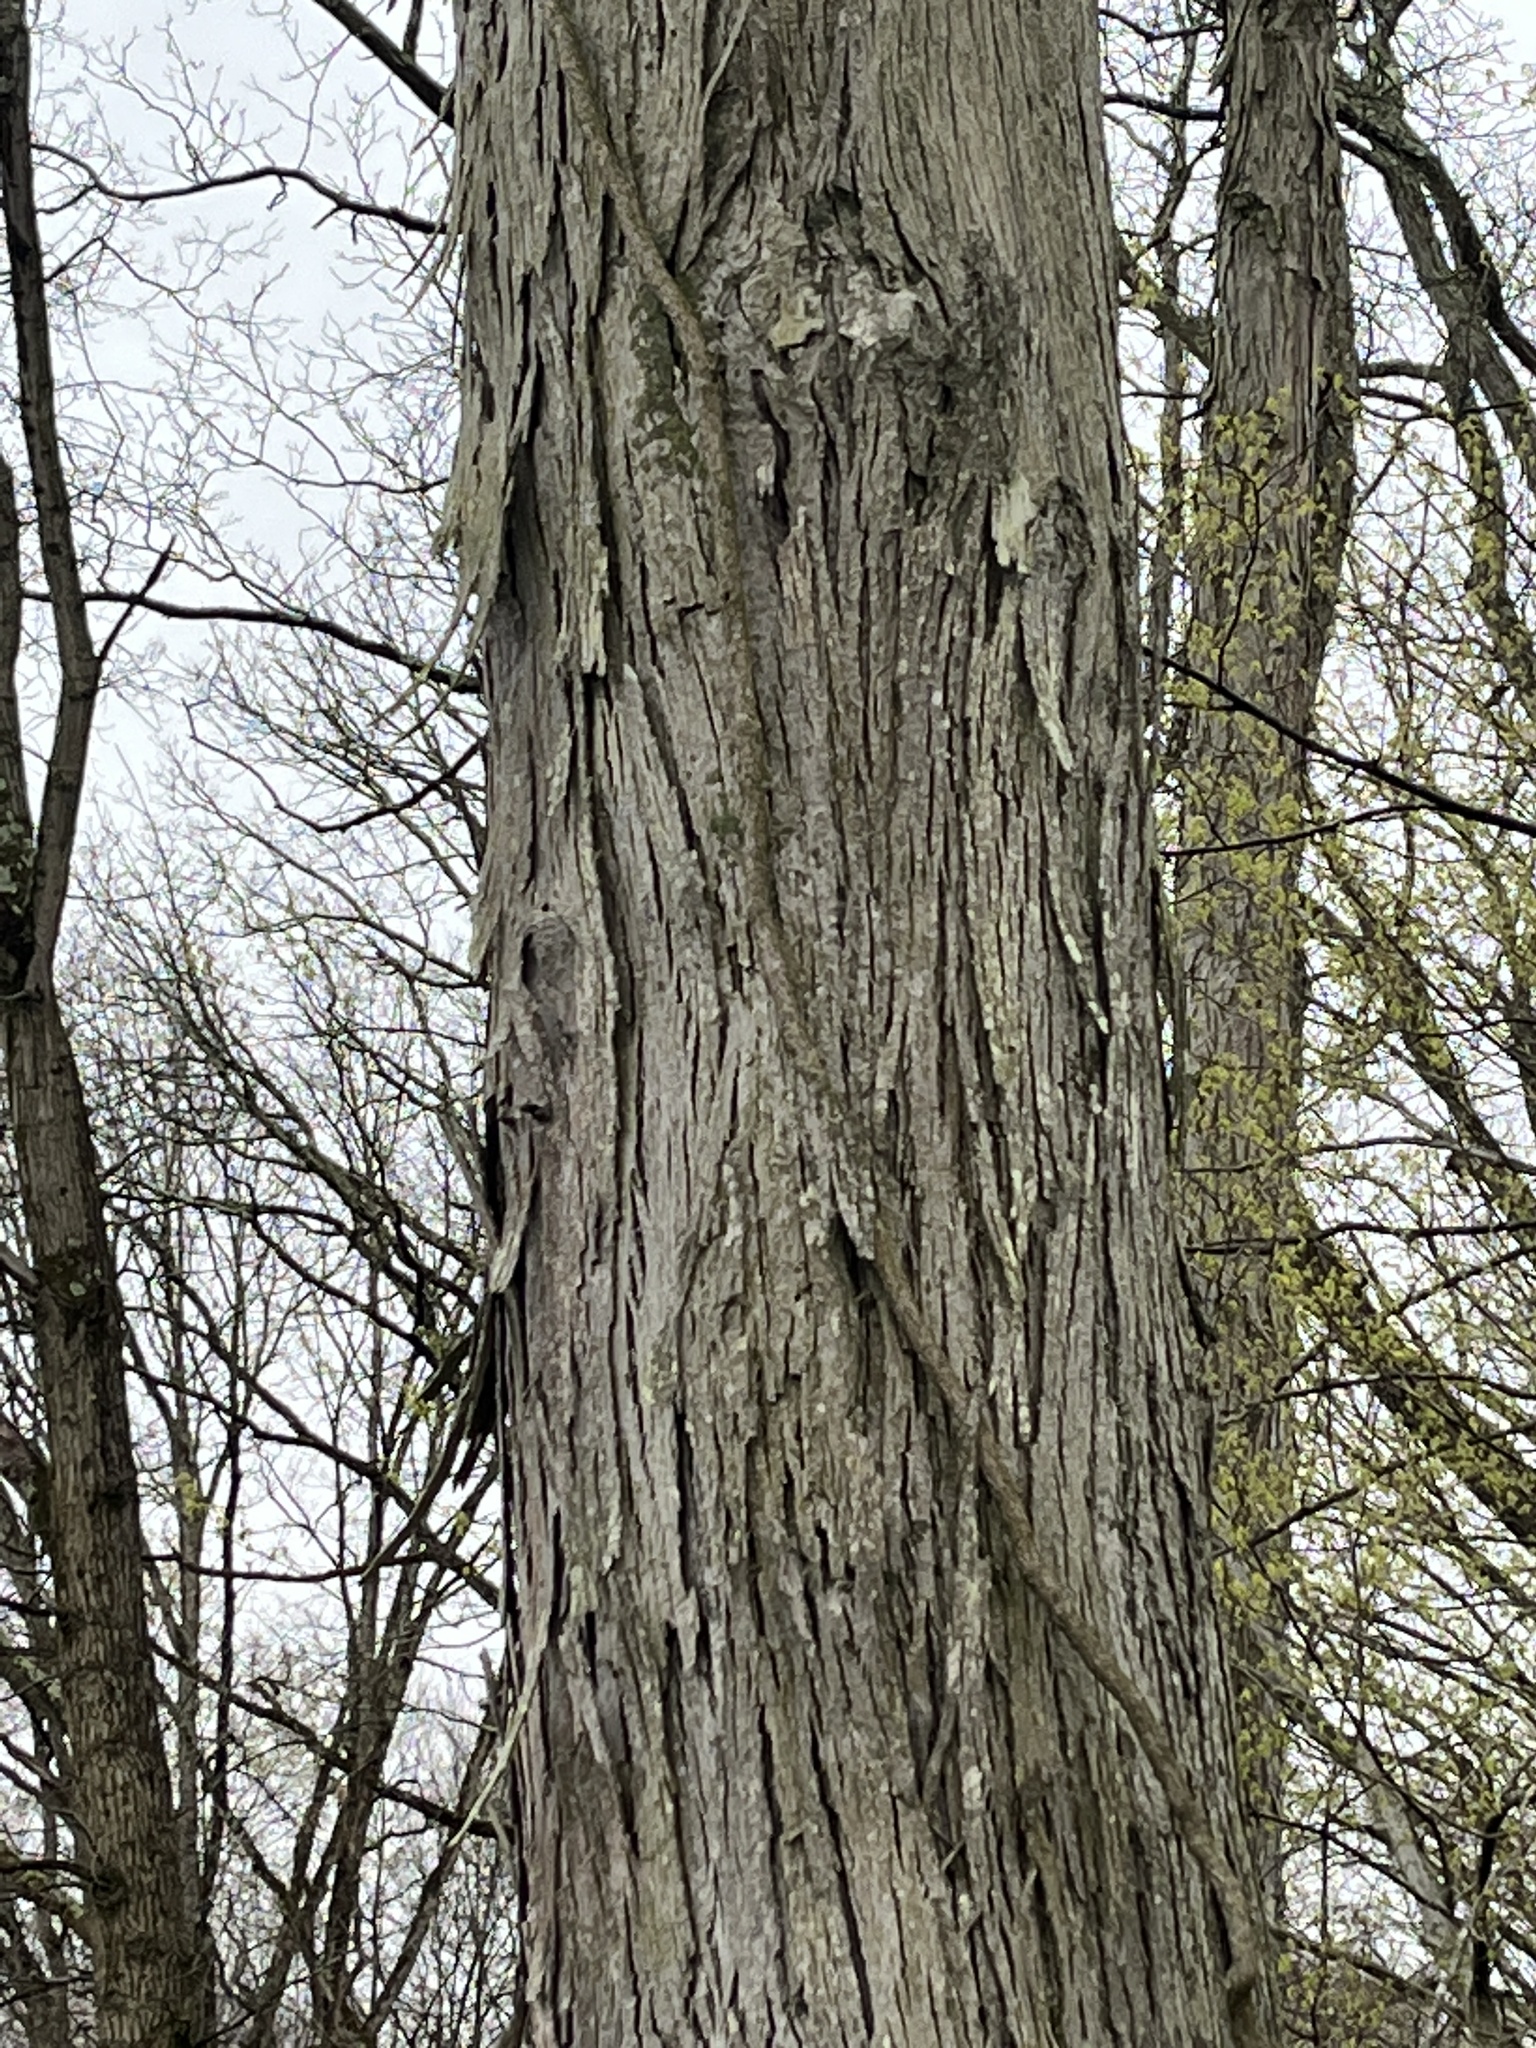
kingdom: Plantae
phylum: Tracheophyta
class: Magnoliopsida
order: Fagales
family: Juglandaceae
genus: Carya
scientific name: Carya ovata
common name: Shagbark hickory
